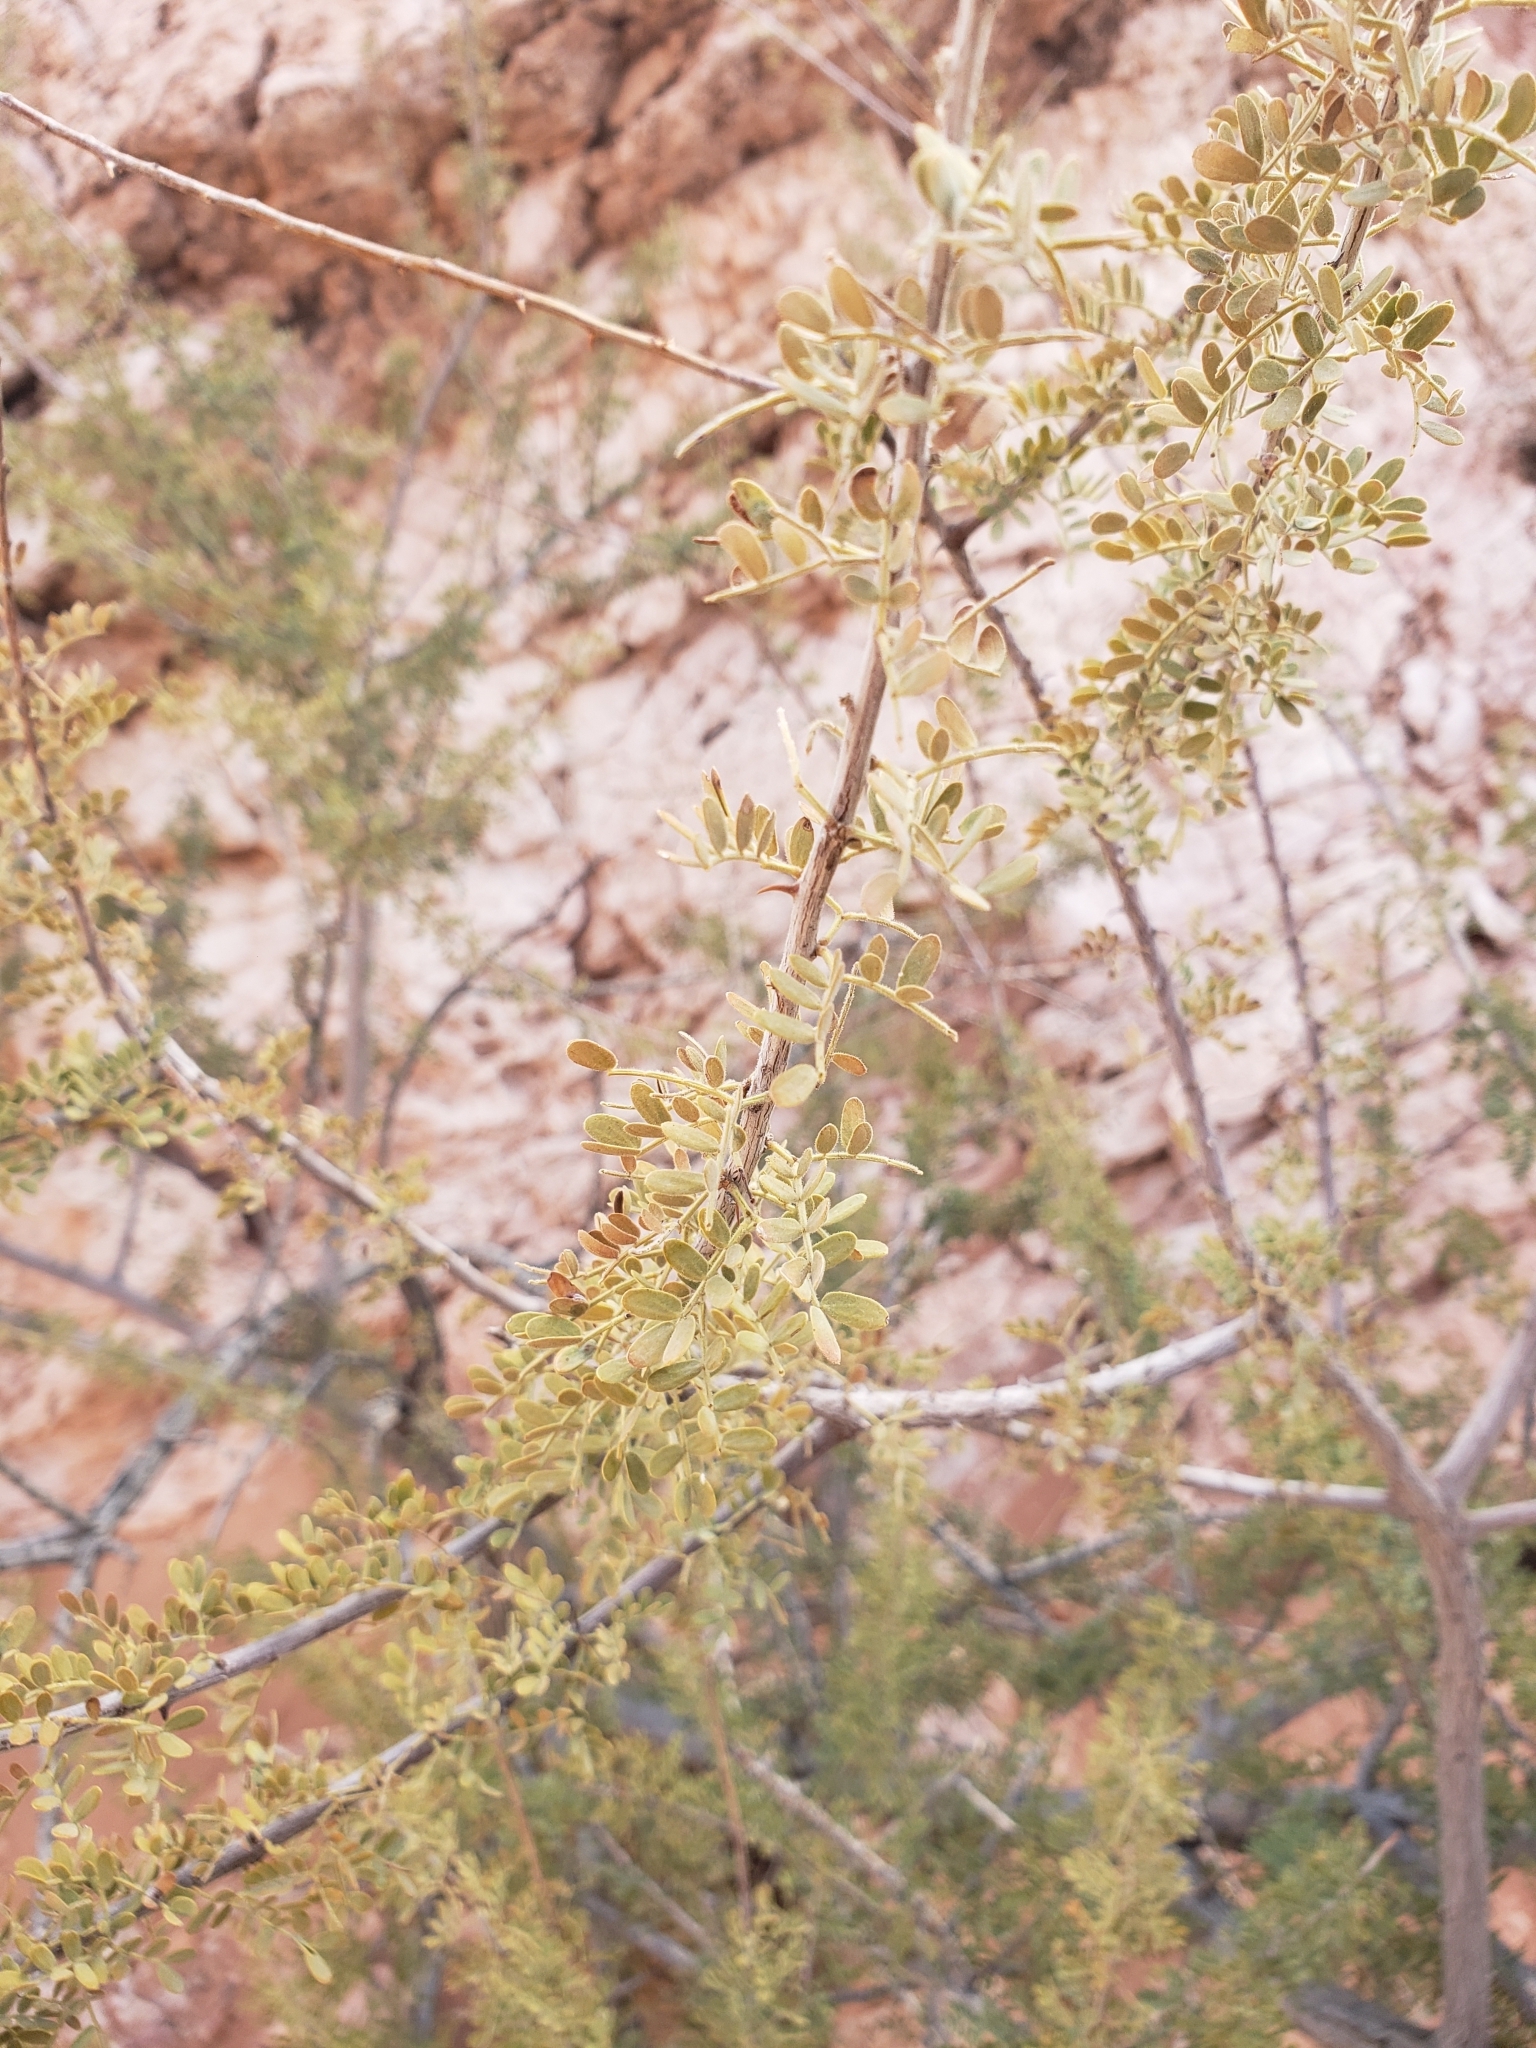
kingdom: Plantae
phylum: Tracheophyta
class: Magnoliopsida
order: Fabales
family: Fabaceae
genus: Senegalia
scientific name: Senegalia greggii
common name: Texas-mimosa
